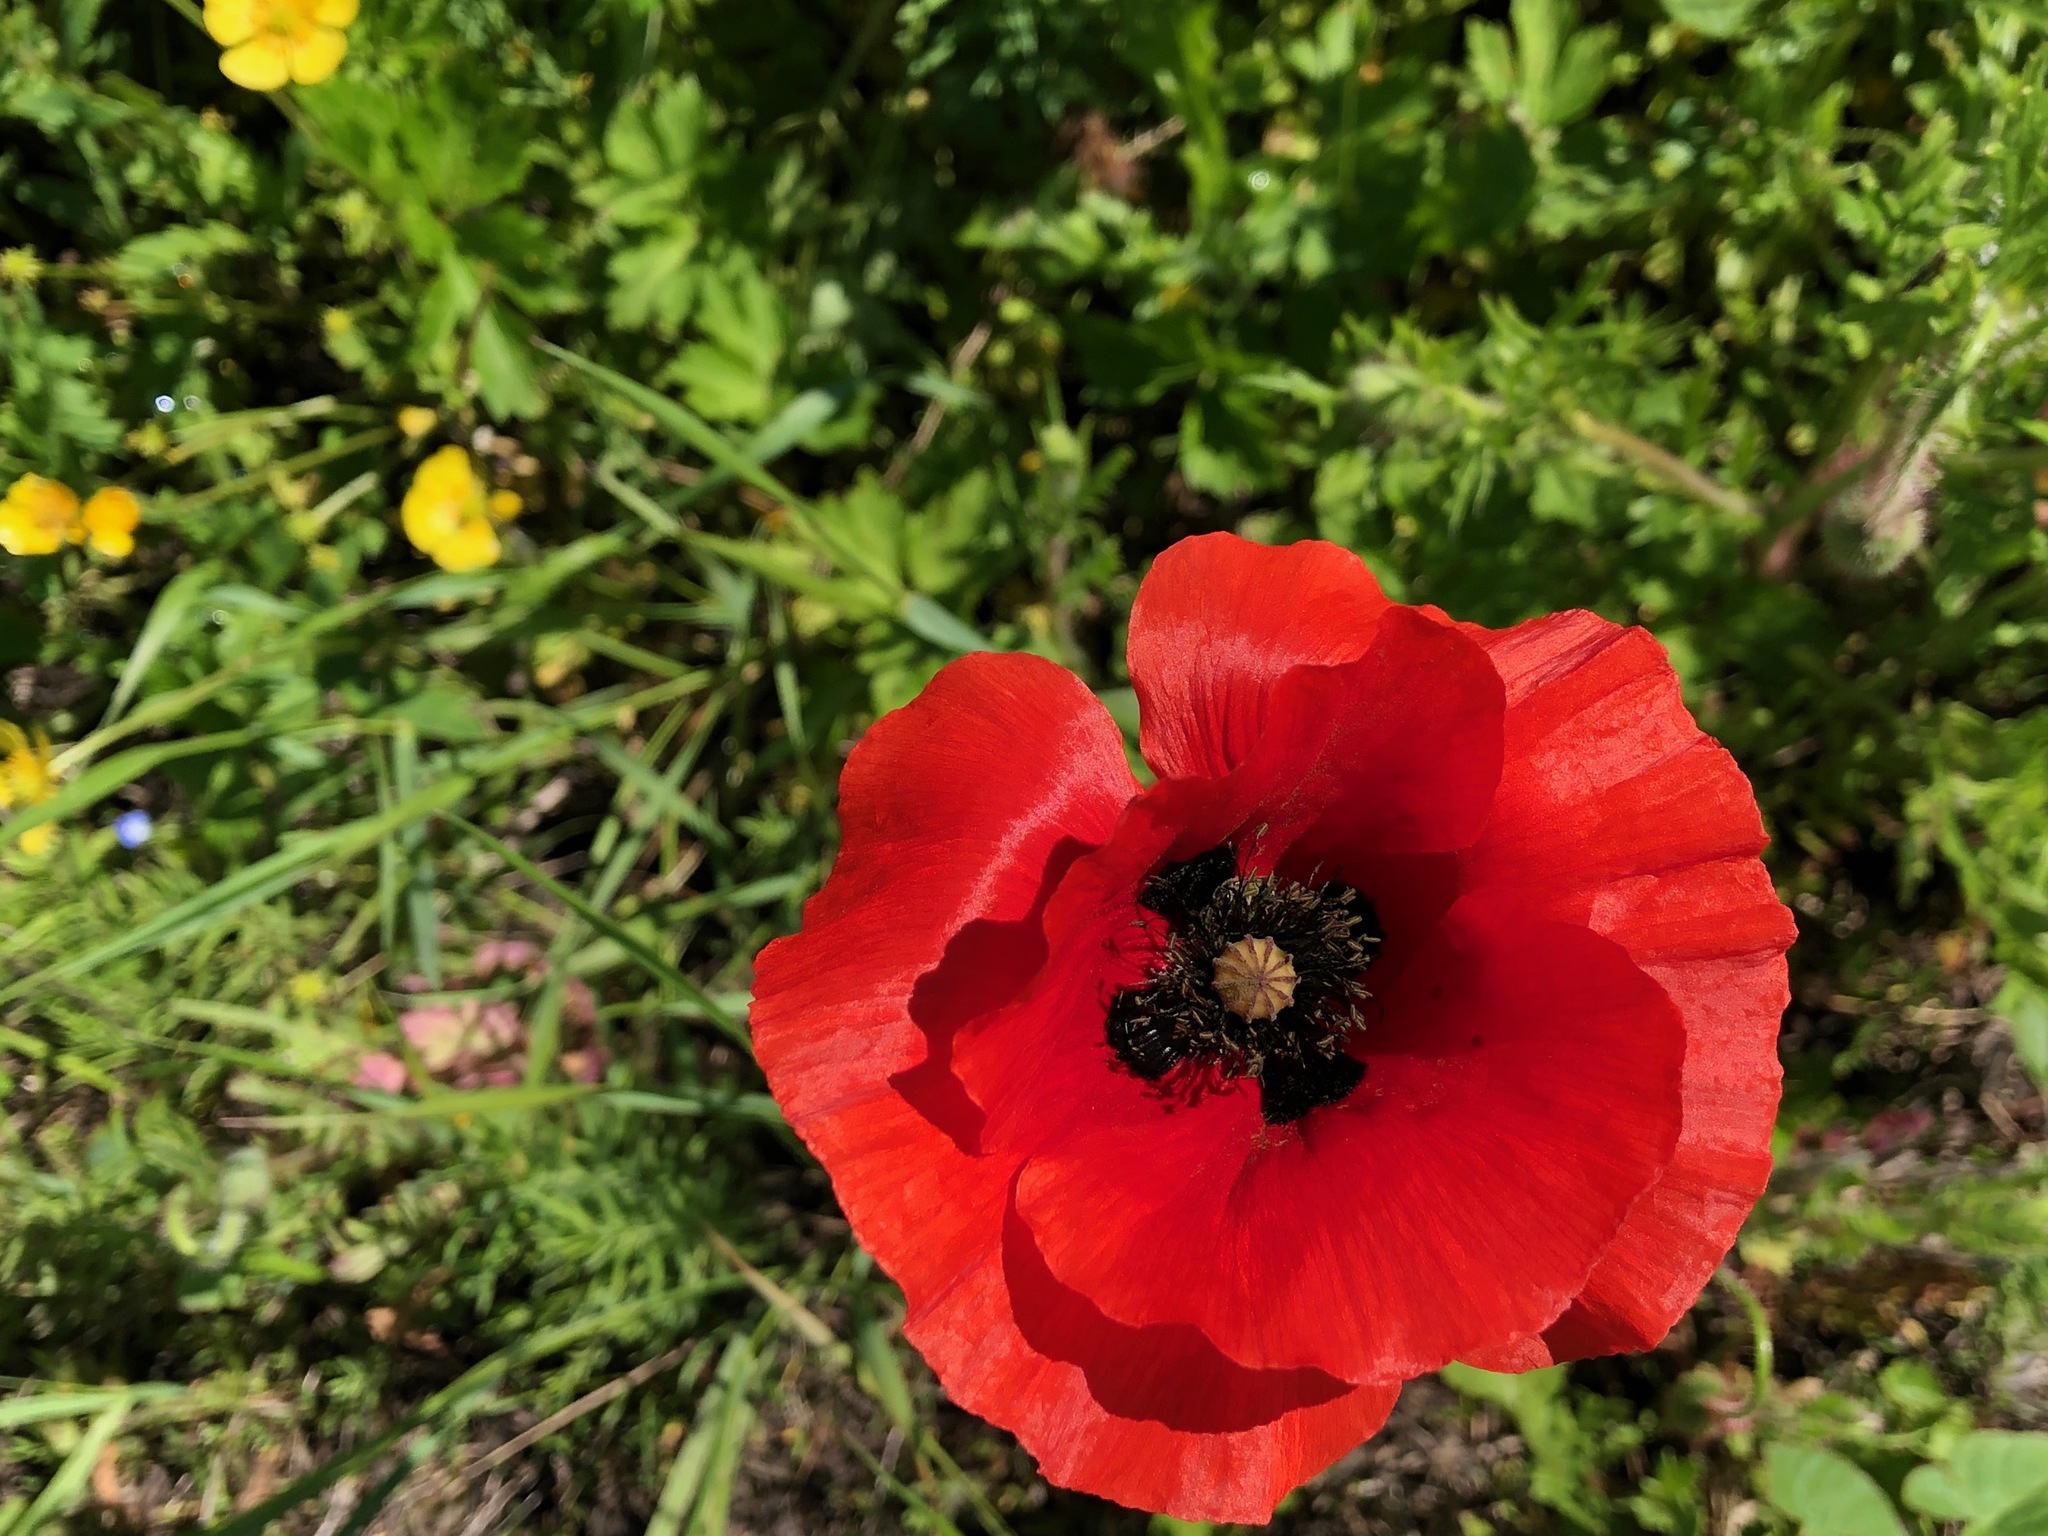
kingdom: Plantae
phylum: Tracheophyta
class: Magnoliopsida
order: Ranunculales
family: Papaveraceae
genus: Papaver
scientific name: Papaver rhoeas
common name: Corn poppy
